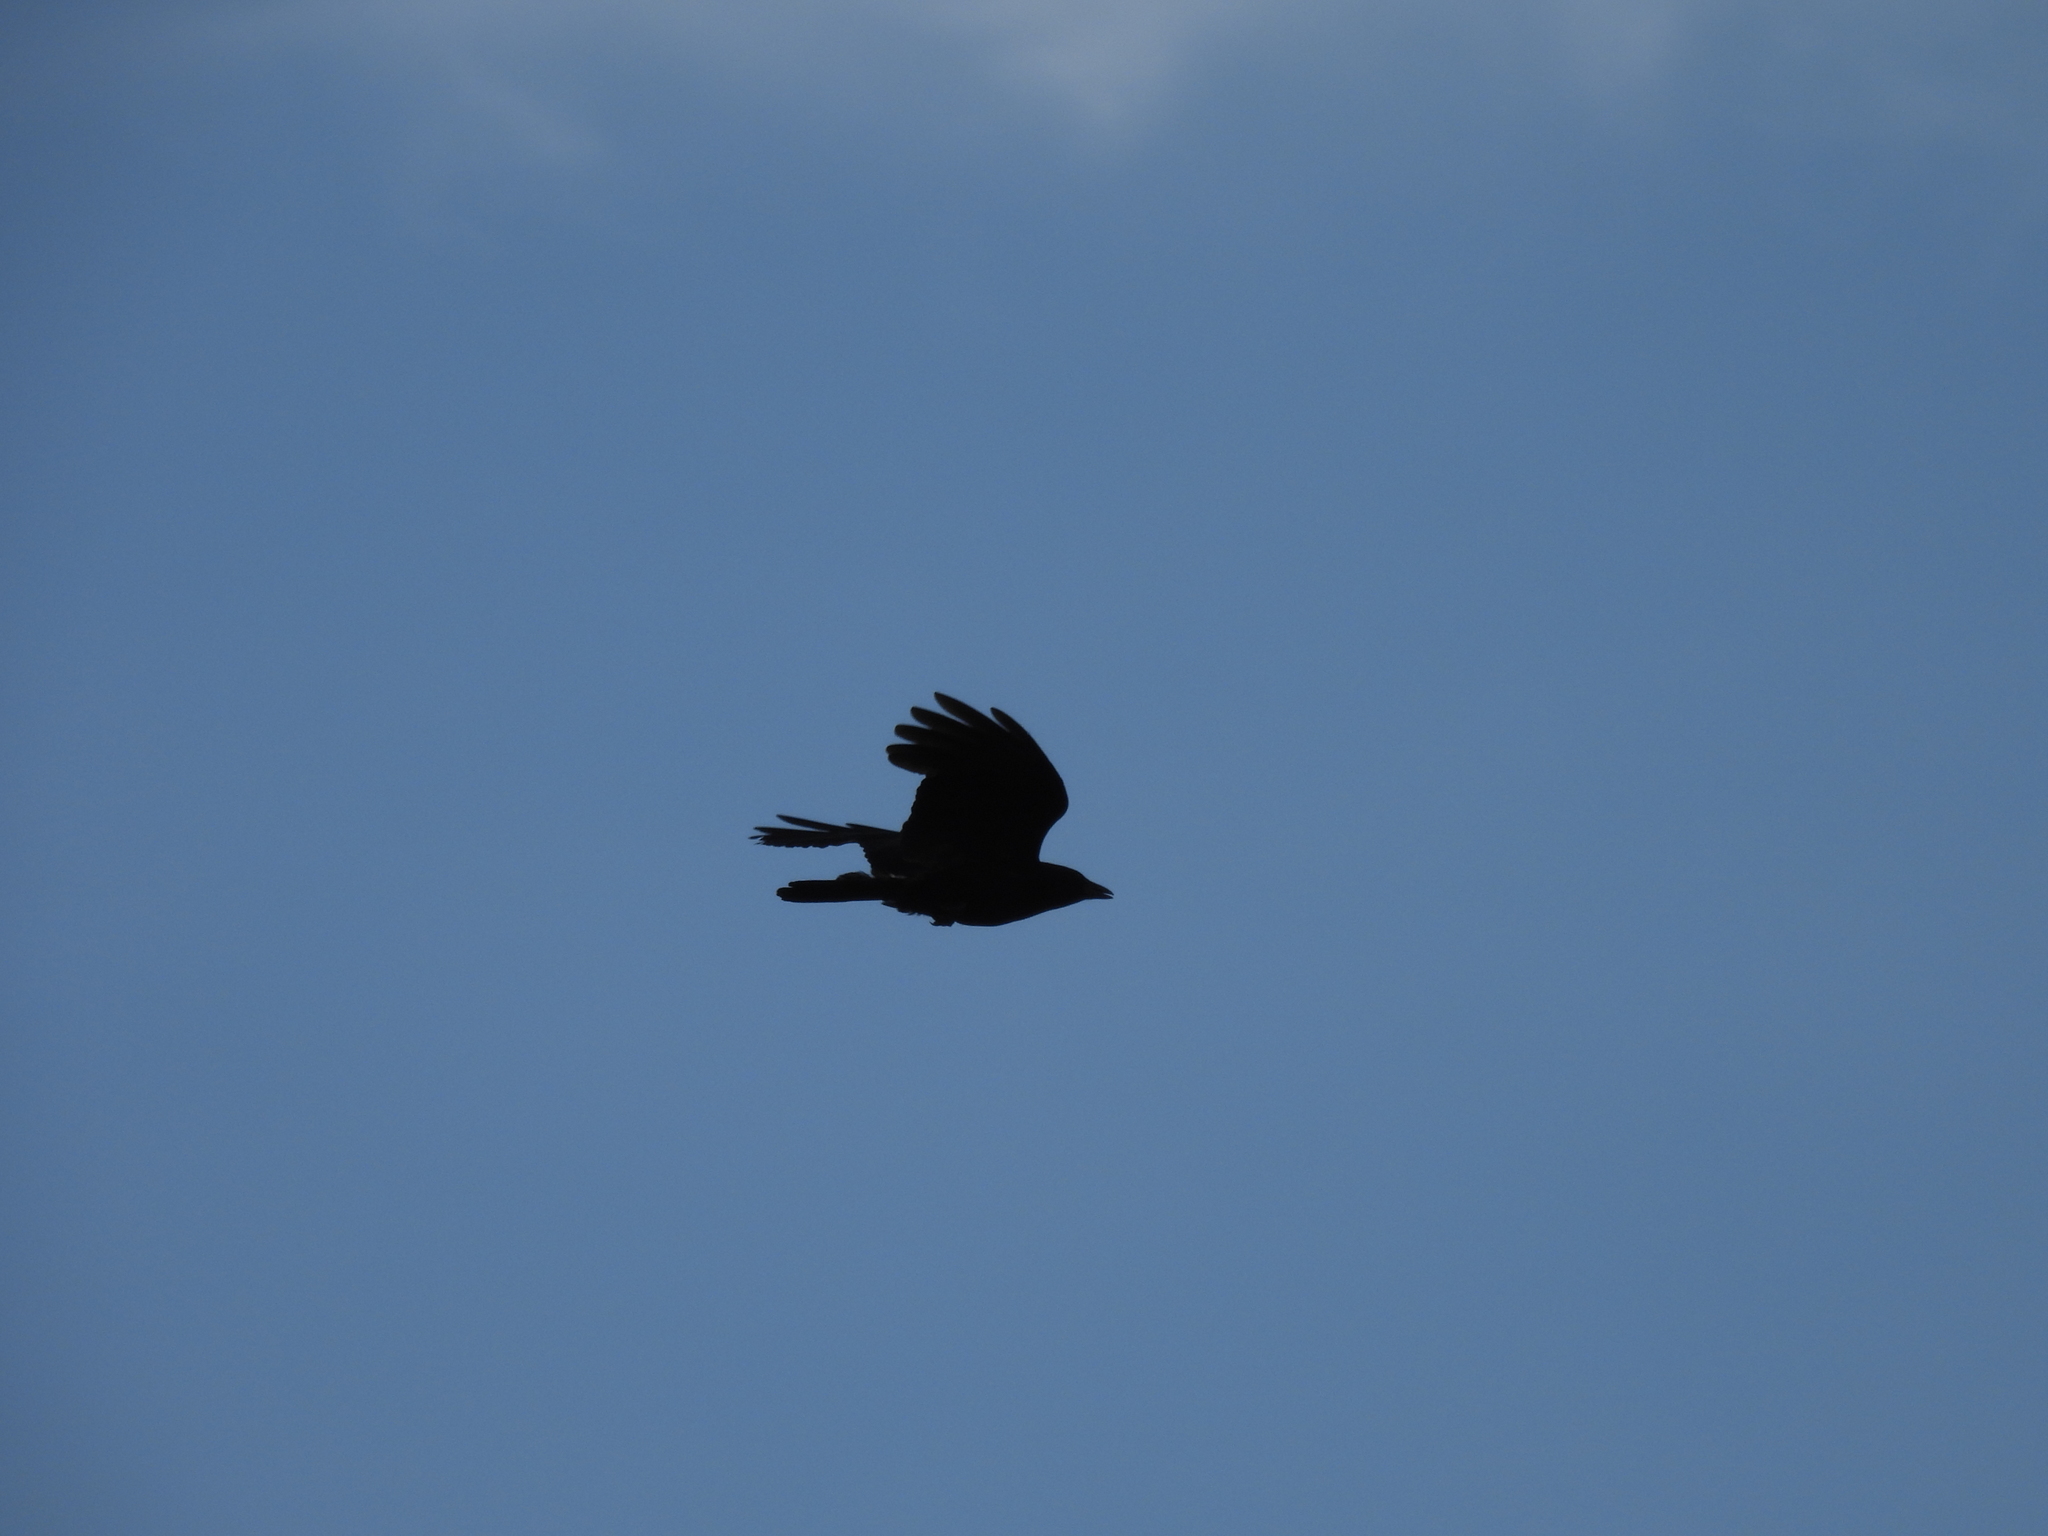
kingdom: Animalia
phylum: Chordata
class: Aves
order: Passeriformes
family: Corvidae
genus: Corvus
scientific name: Corvus brachyrhynchos
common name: American crow
